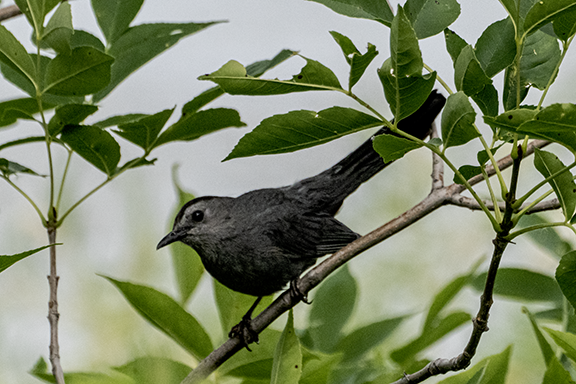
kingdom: Animalia
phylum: Chordata
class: Aves
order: Passeriformes
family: Mimidae
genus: Dumetella
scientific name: Dumetella carolinensis
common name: Gray catbird
